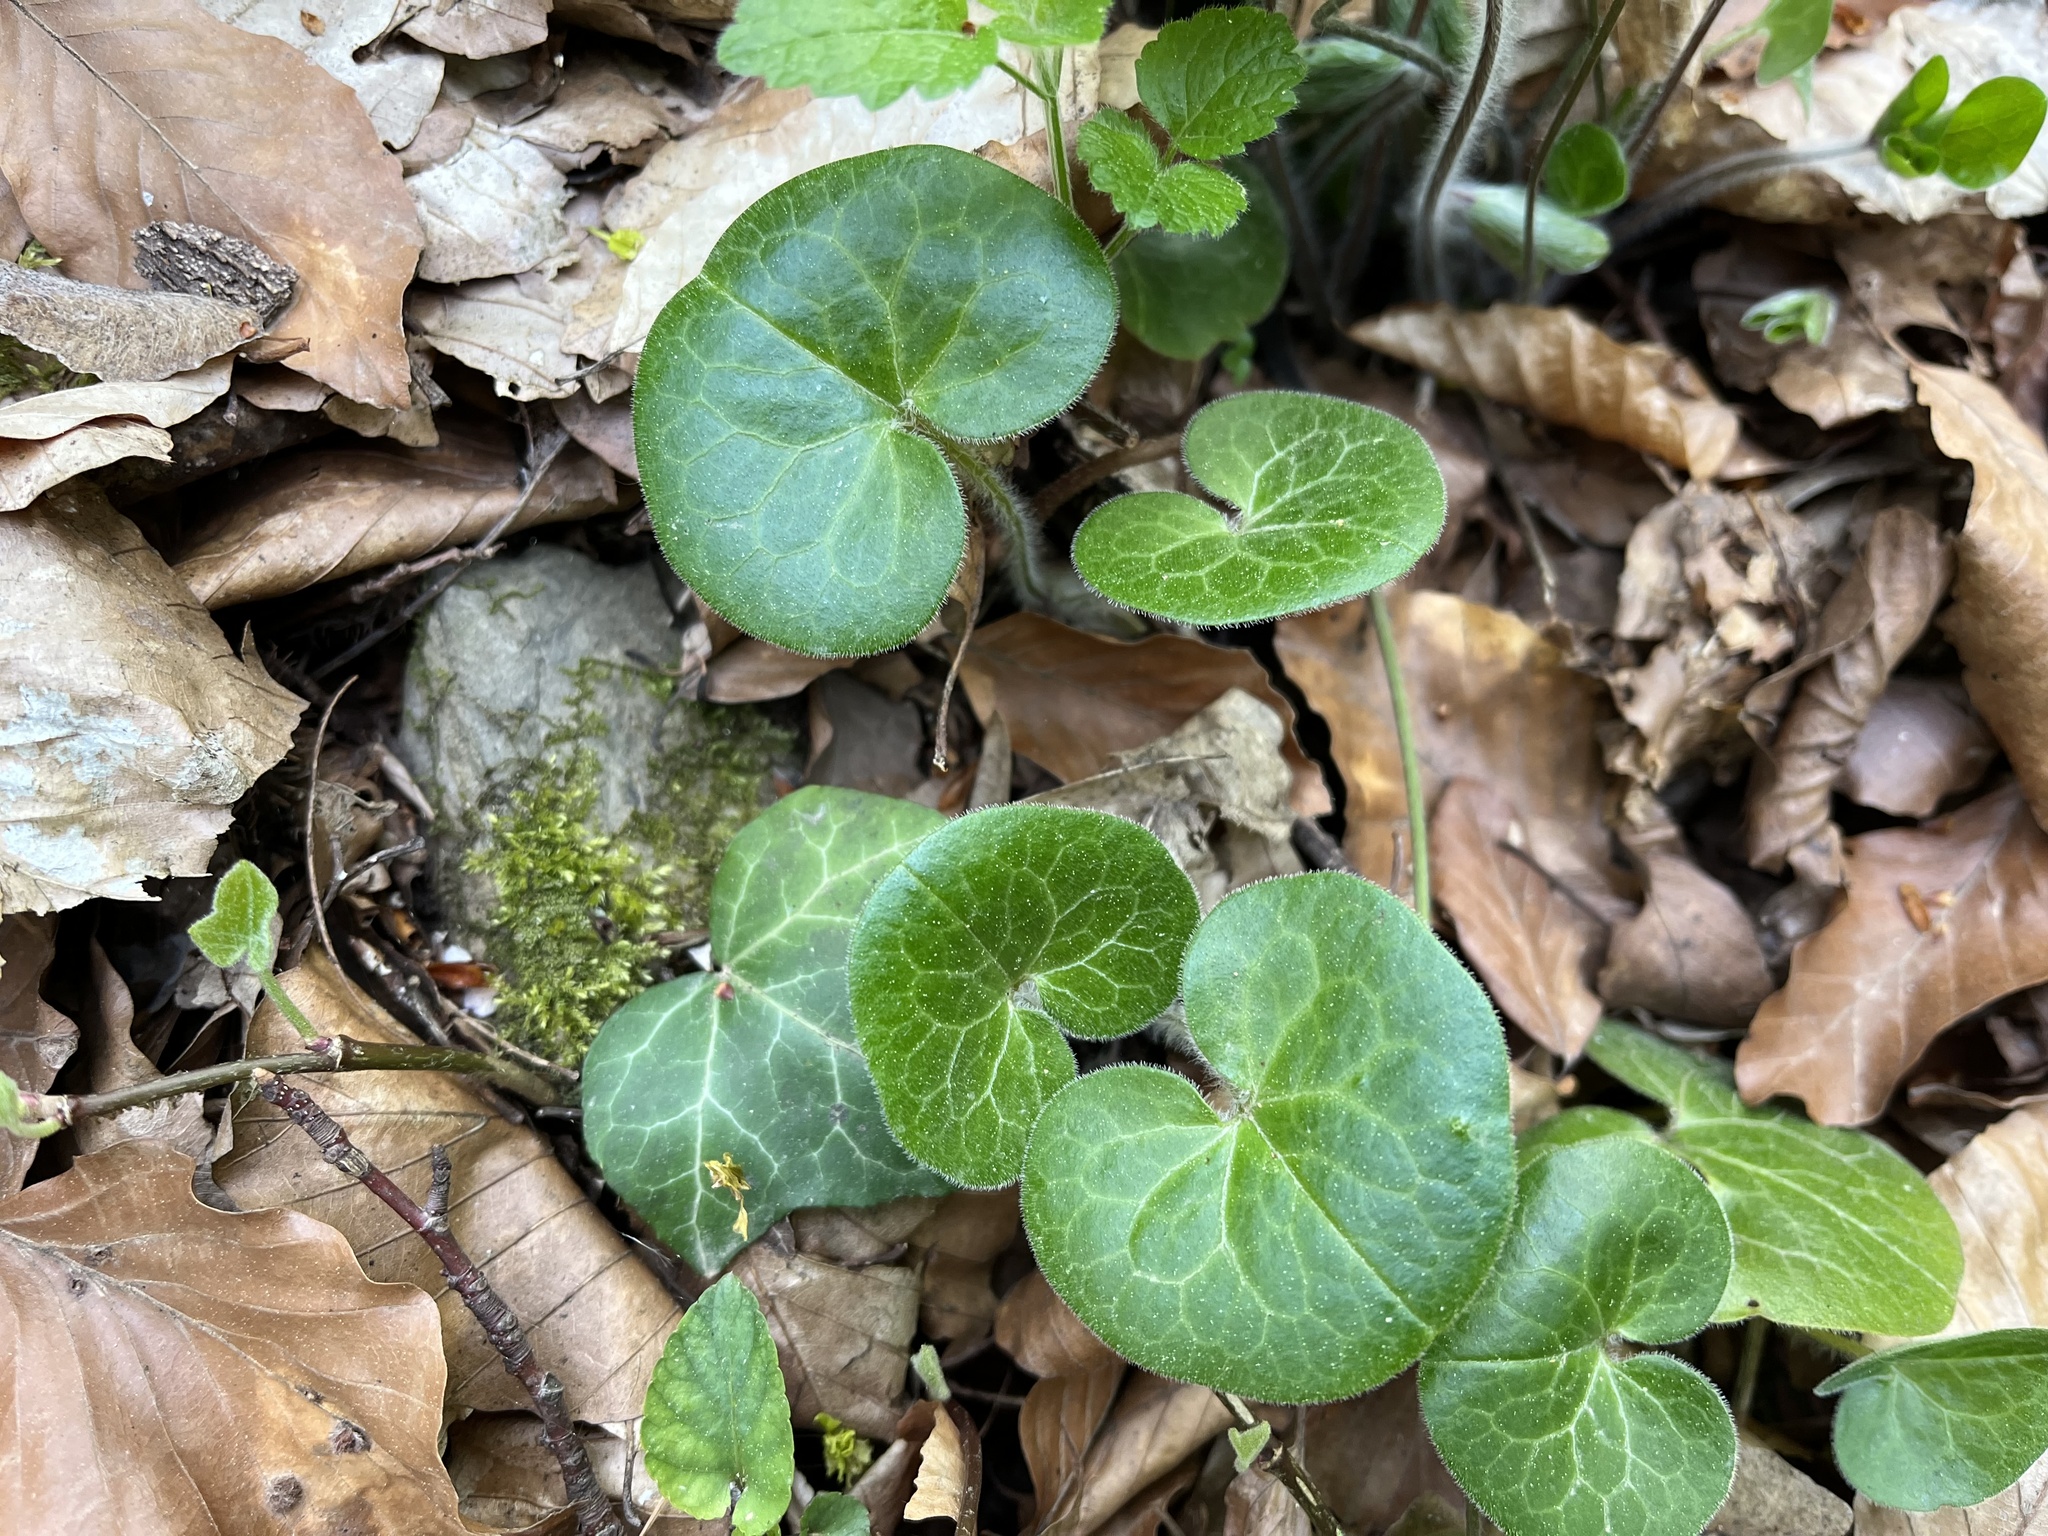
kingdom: Plantae
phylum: Tracheophyta
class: Magnoliopsida
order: Piperales
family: Aristolochiaceae
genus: Asarum
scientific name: Asarum europaeum
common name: Asarabacca
